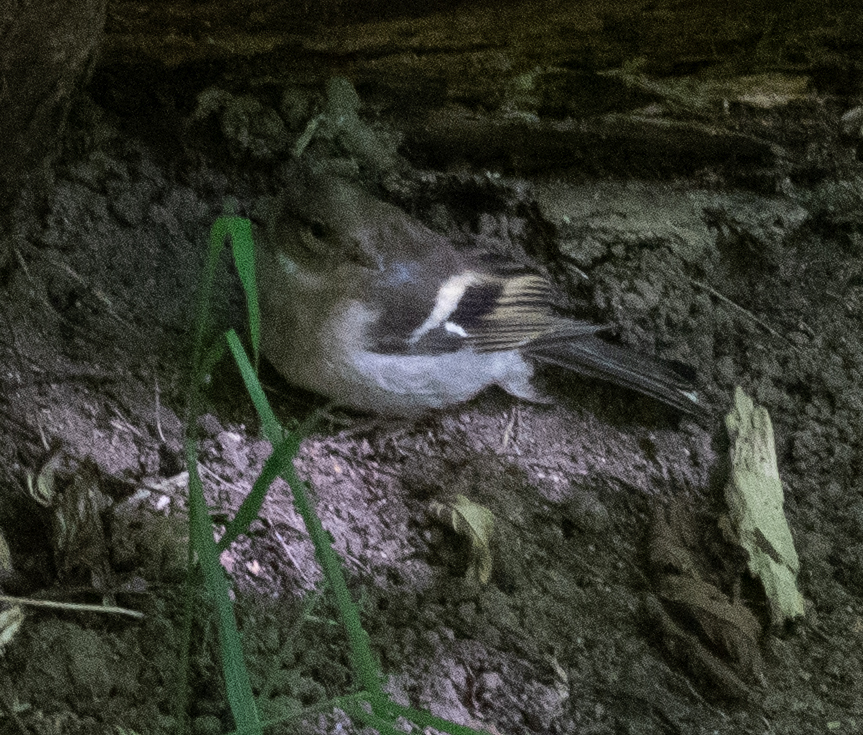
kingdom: Animalia
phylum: Chordata
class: Aves
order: Passeriformes
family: Fringillidae
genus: Fringilla
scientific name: Fringilla coelebs
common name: Common chaffinch
